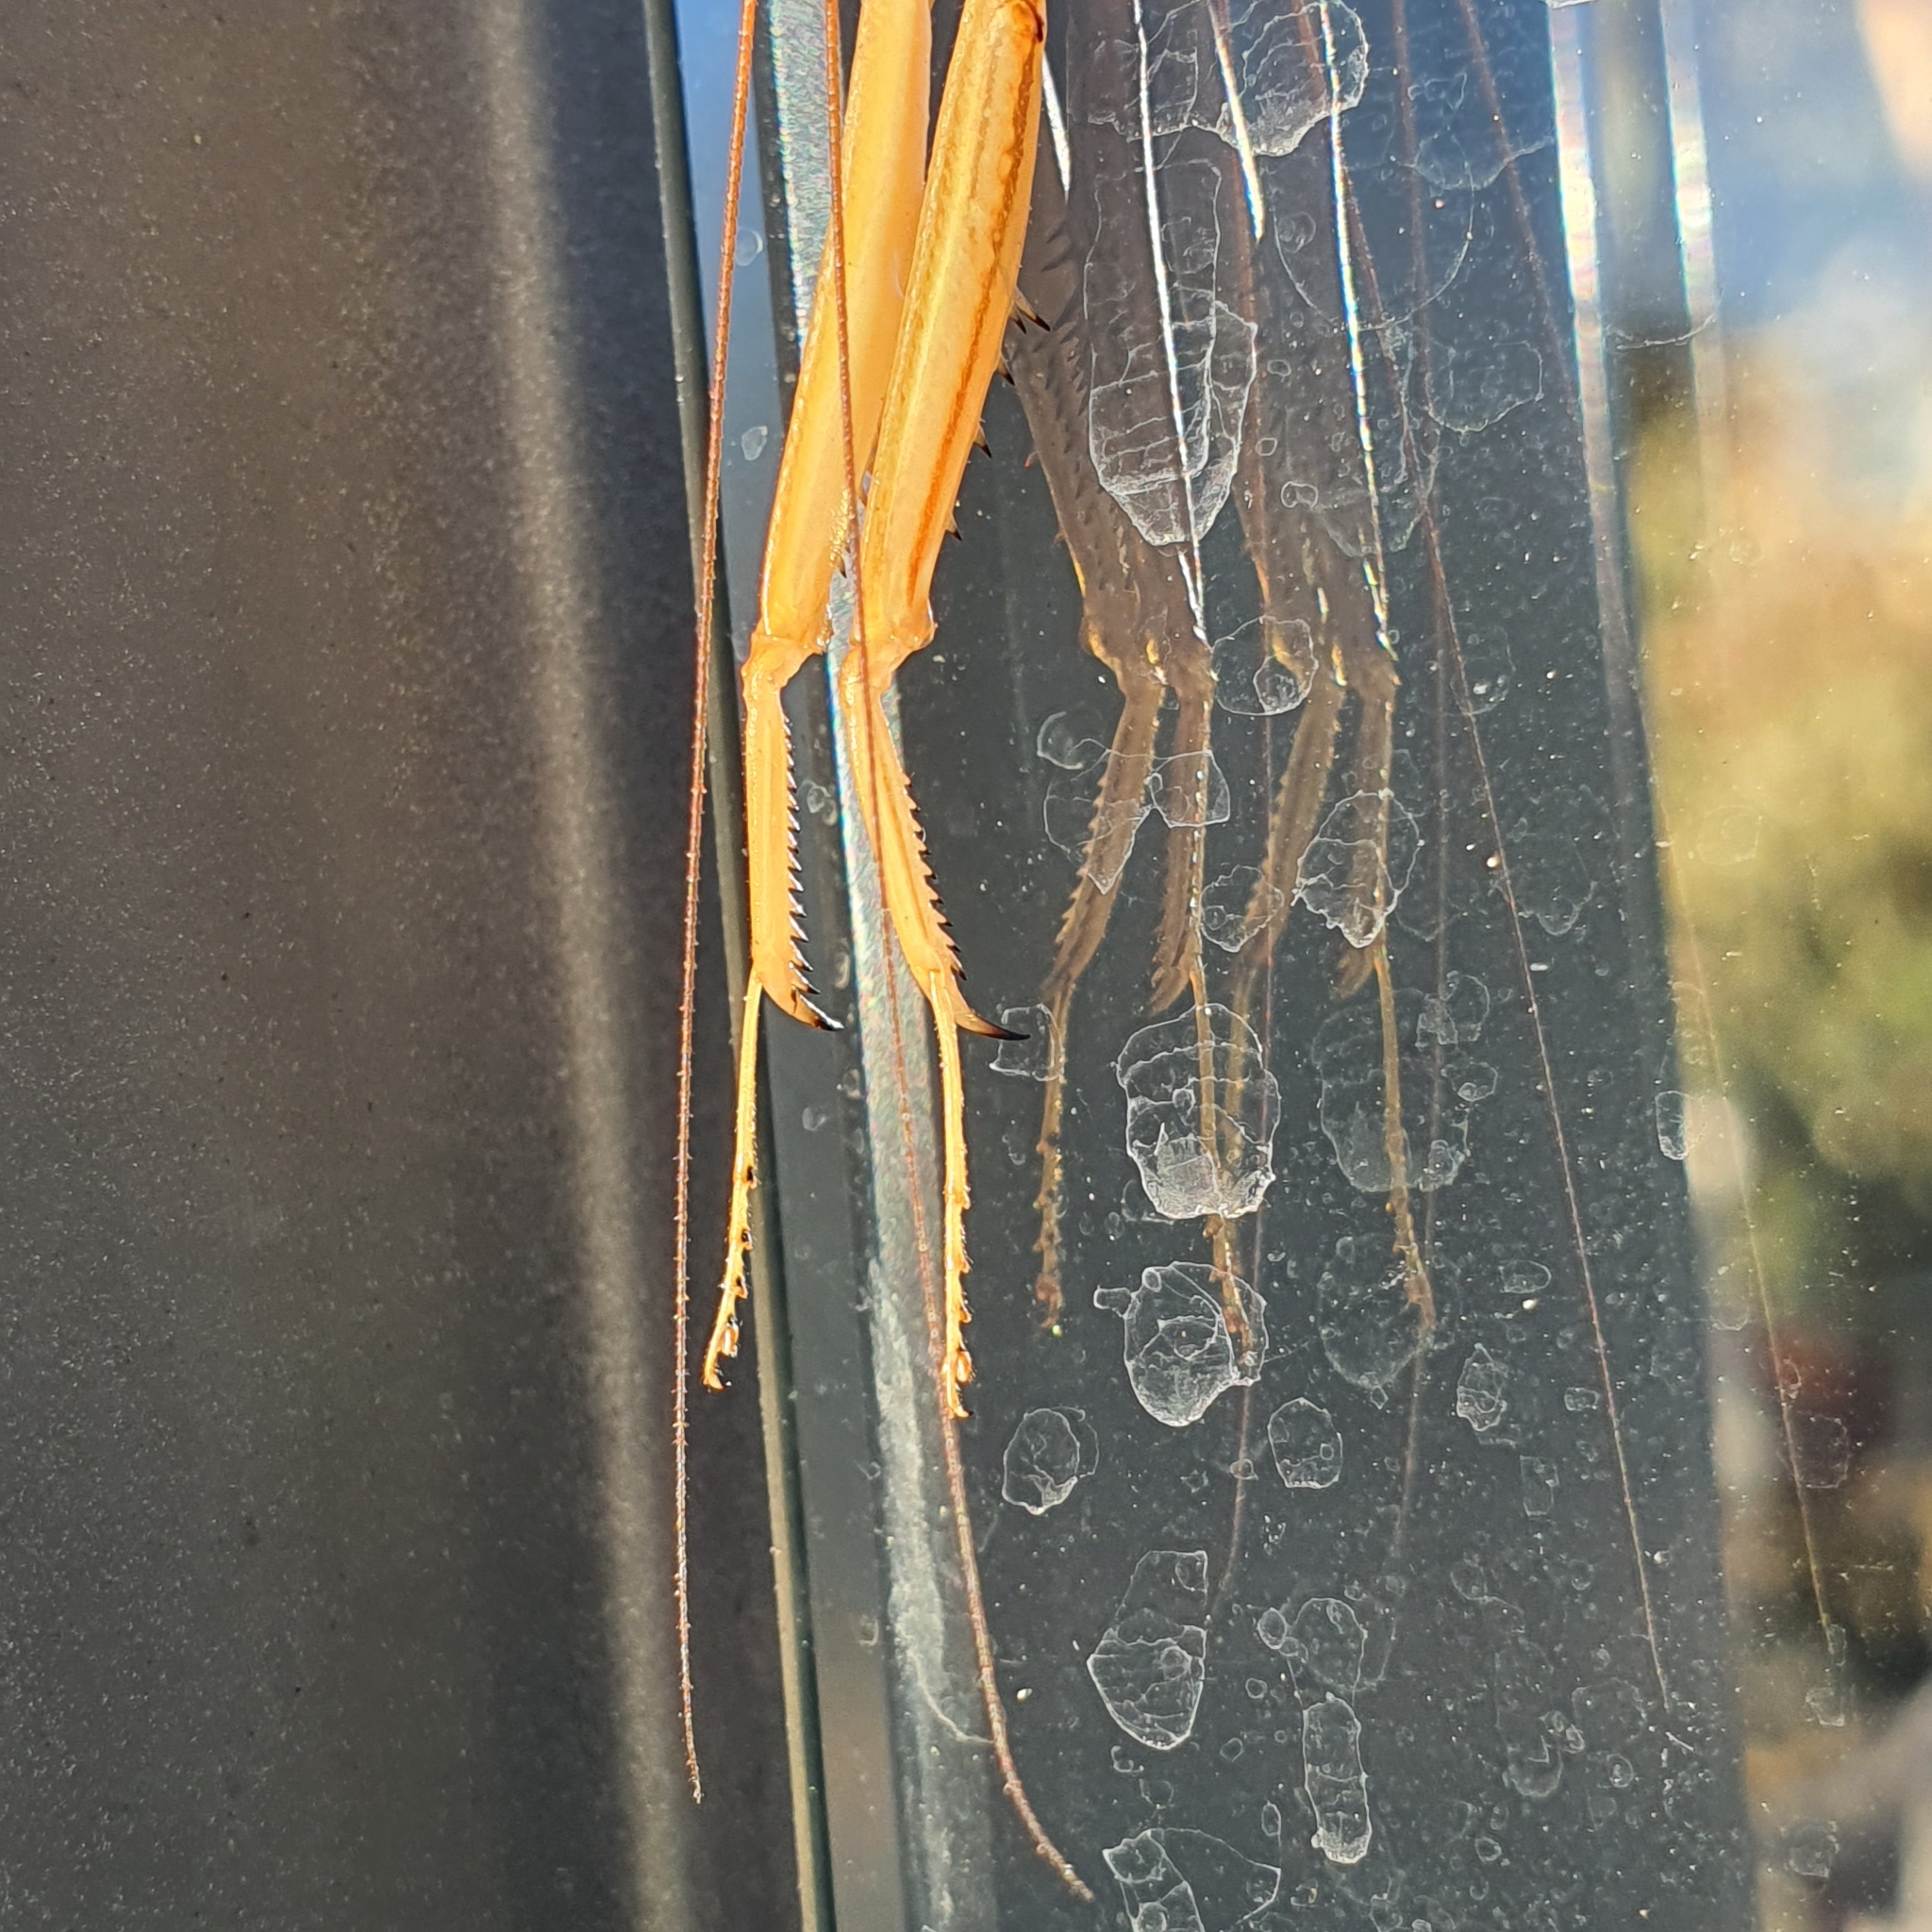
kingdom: Animalia
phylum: Arthropoda
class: Insecta
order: Mantodea
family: Mantidae
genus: Tenodera
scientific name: Tenodera australasiae
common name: Purple-winged mantis
